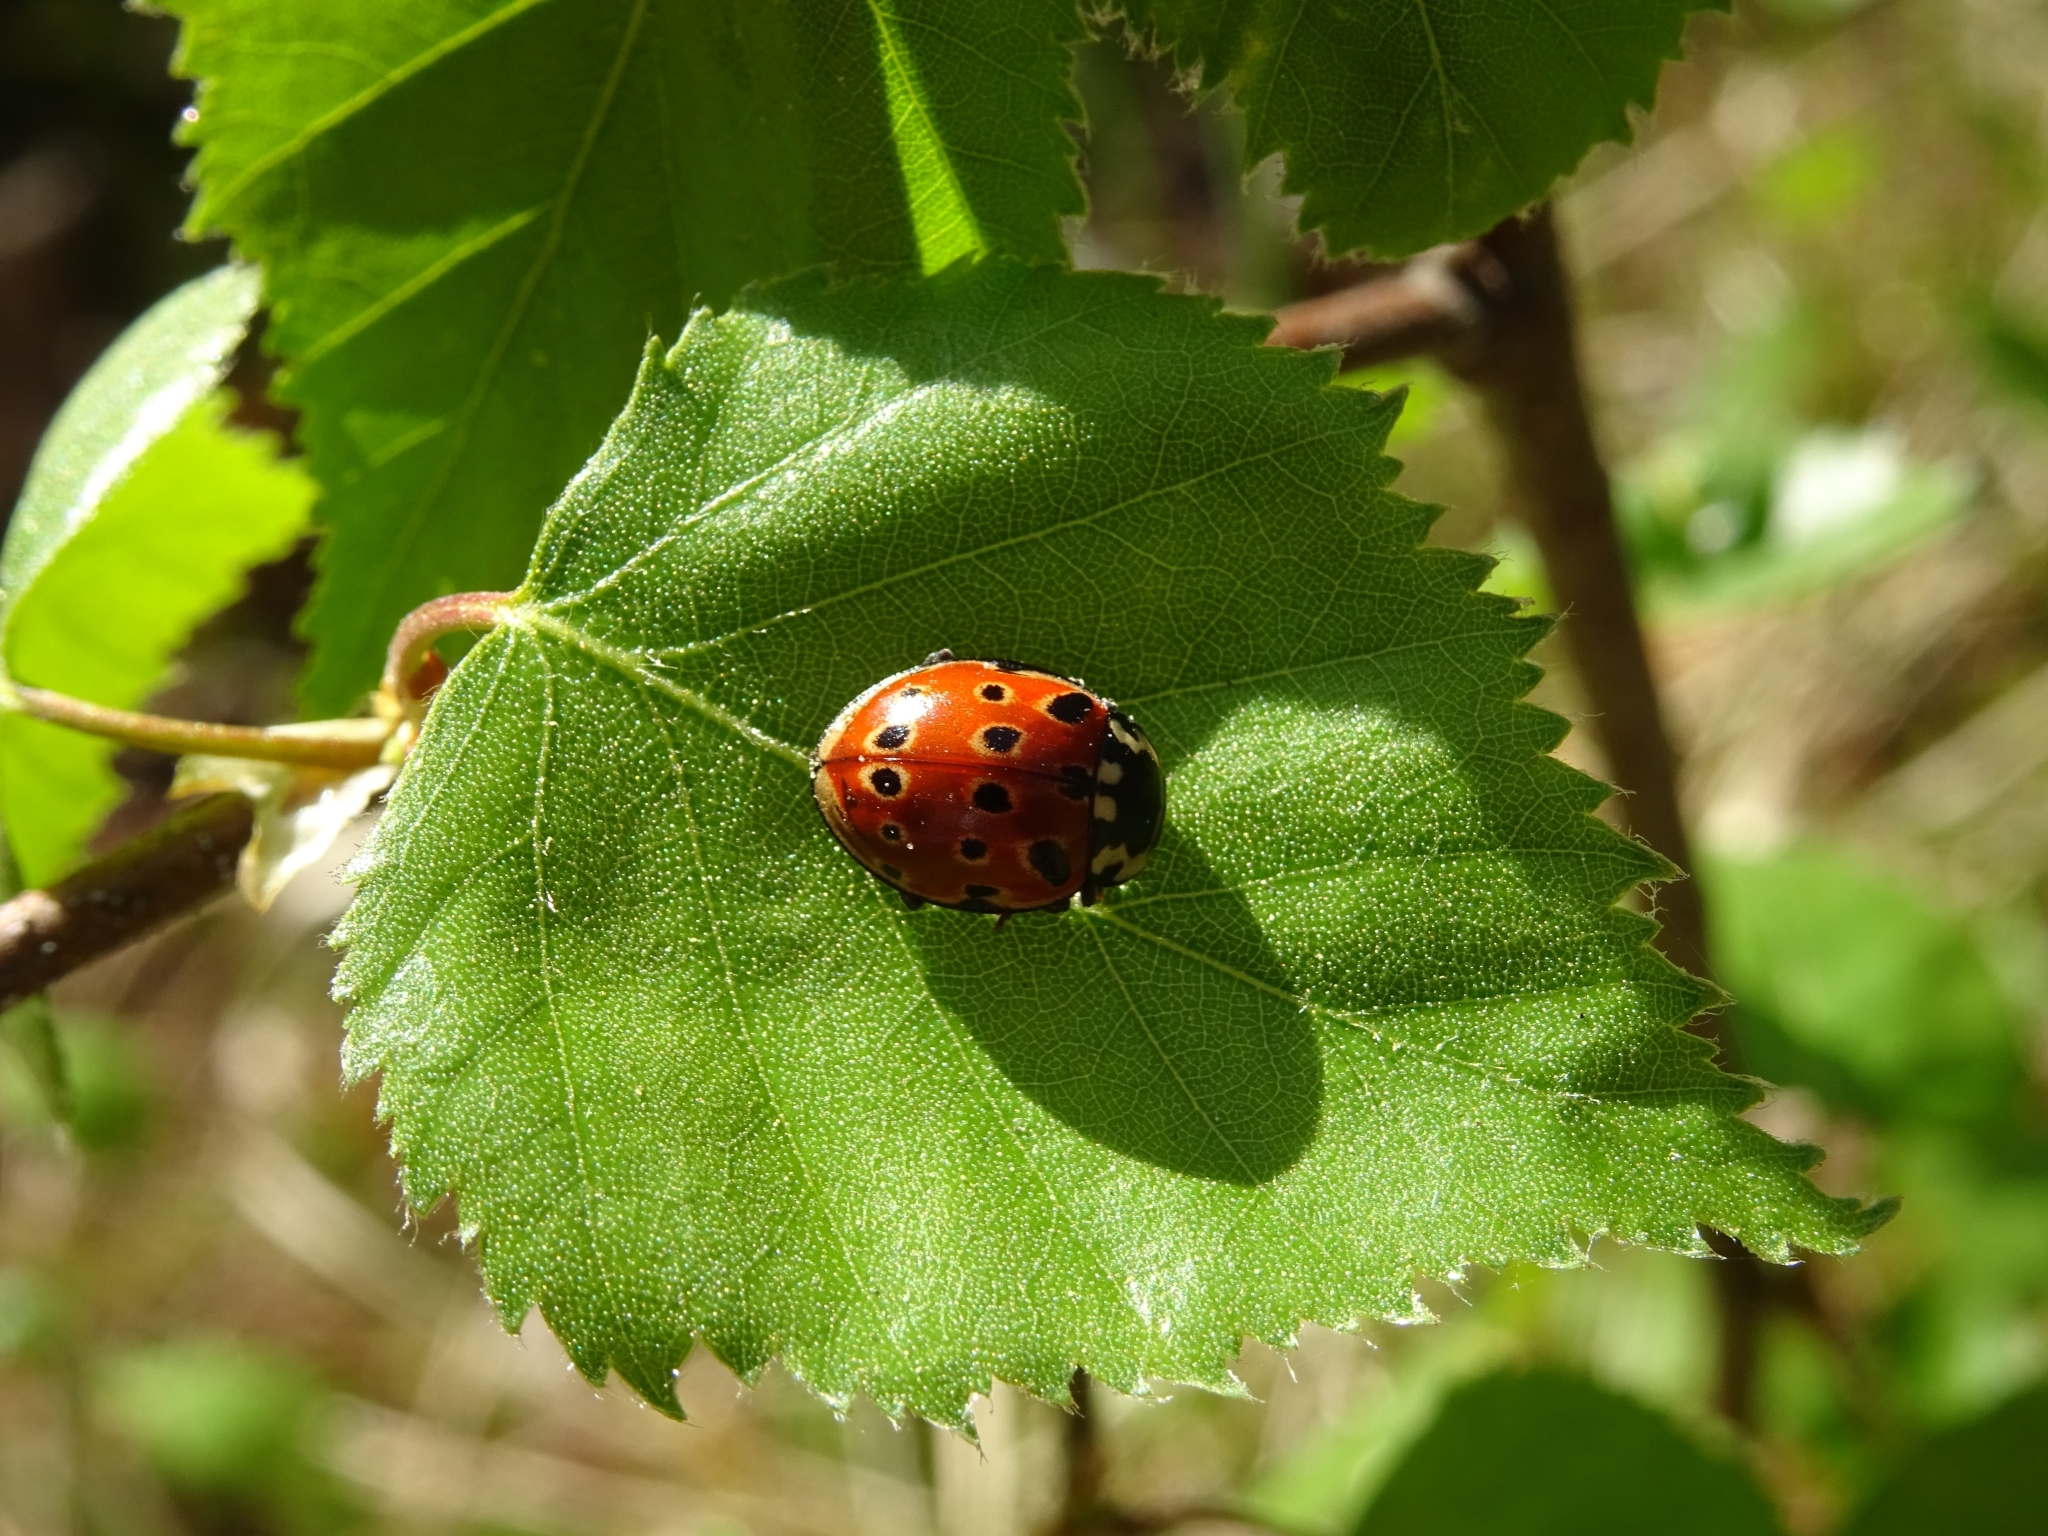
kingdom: Animalia
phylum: Arthropoda
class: Insecta
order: Coleoptera
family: Coccinellidae
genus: Anatis
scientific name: Anatis ocellata
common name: Eyed ladybird
